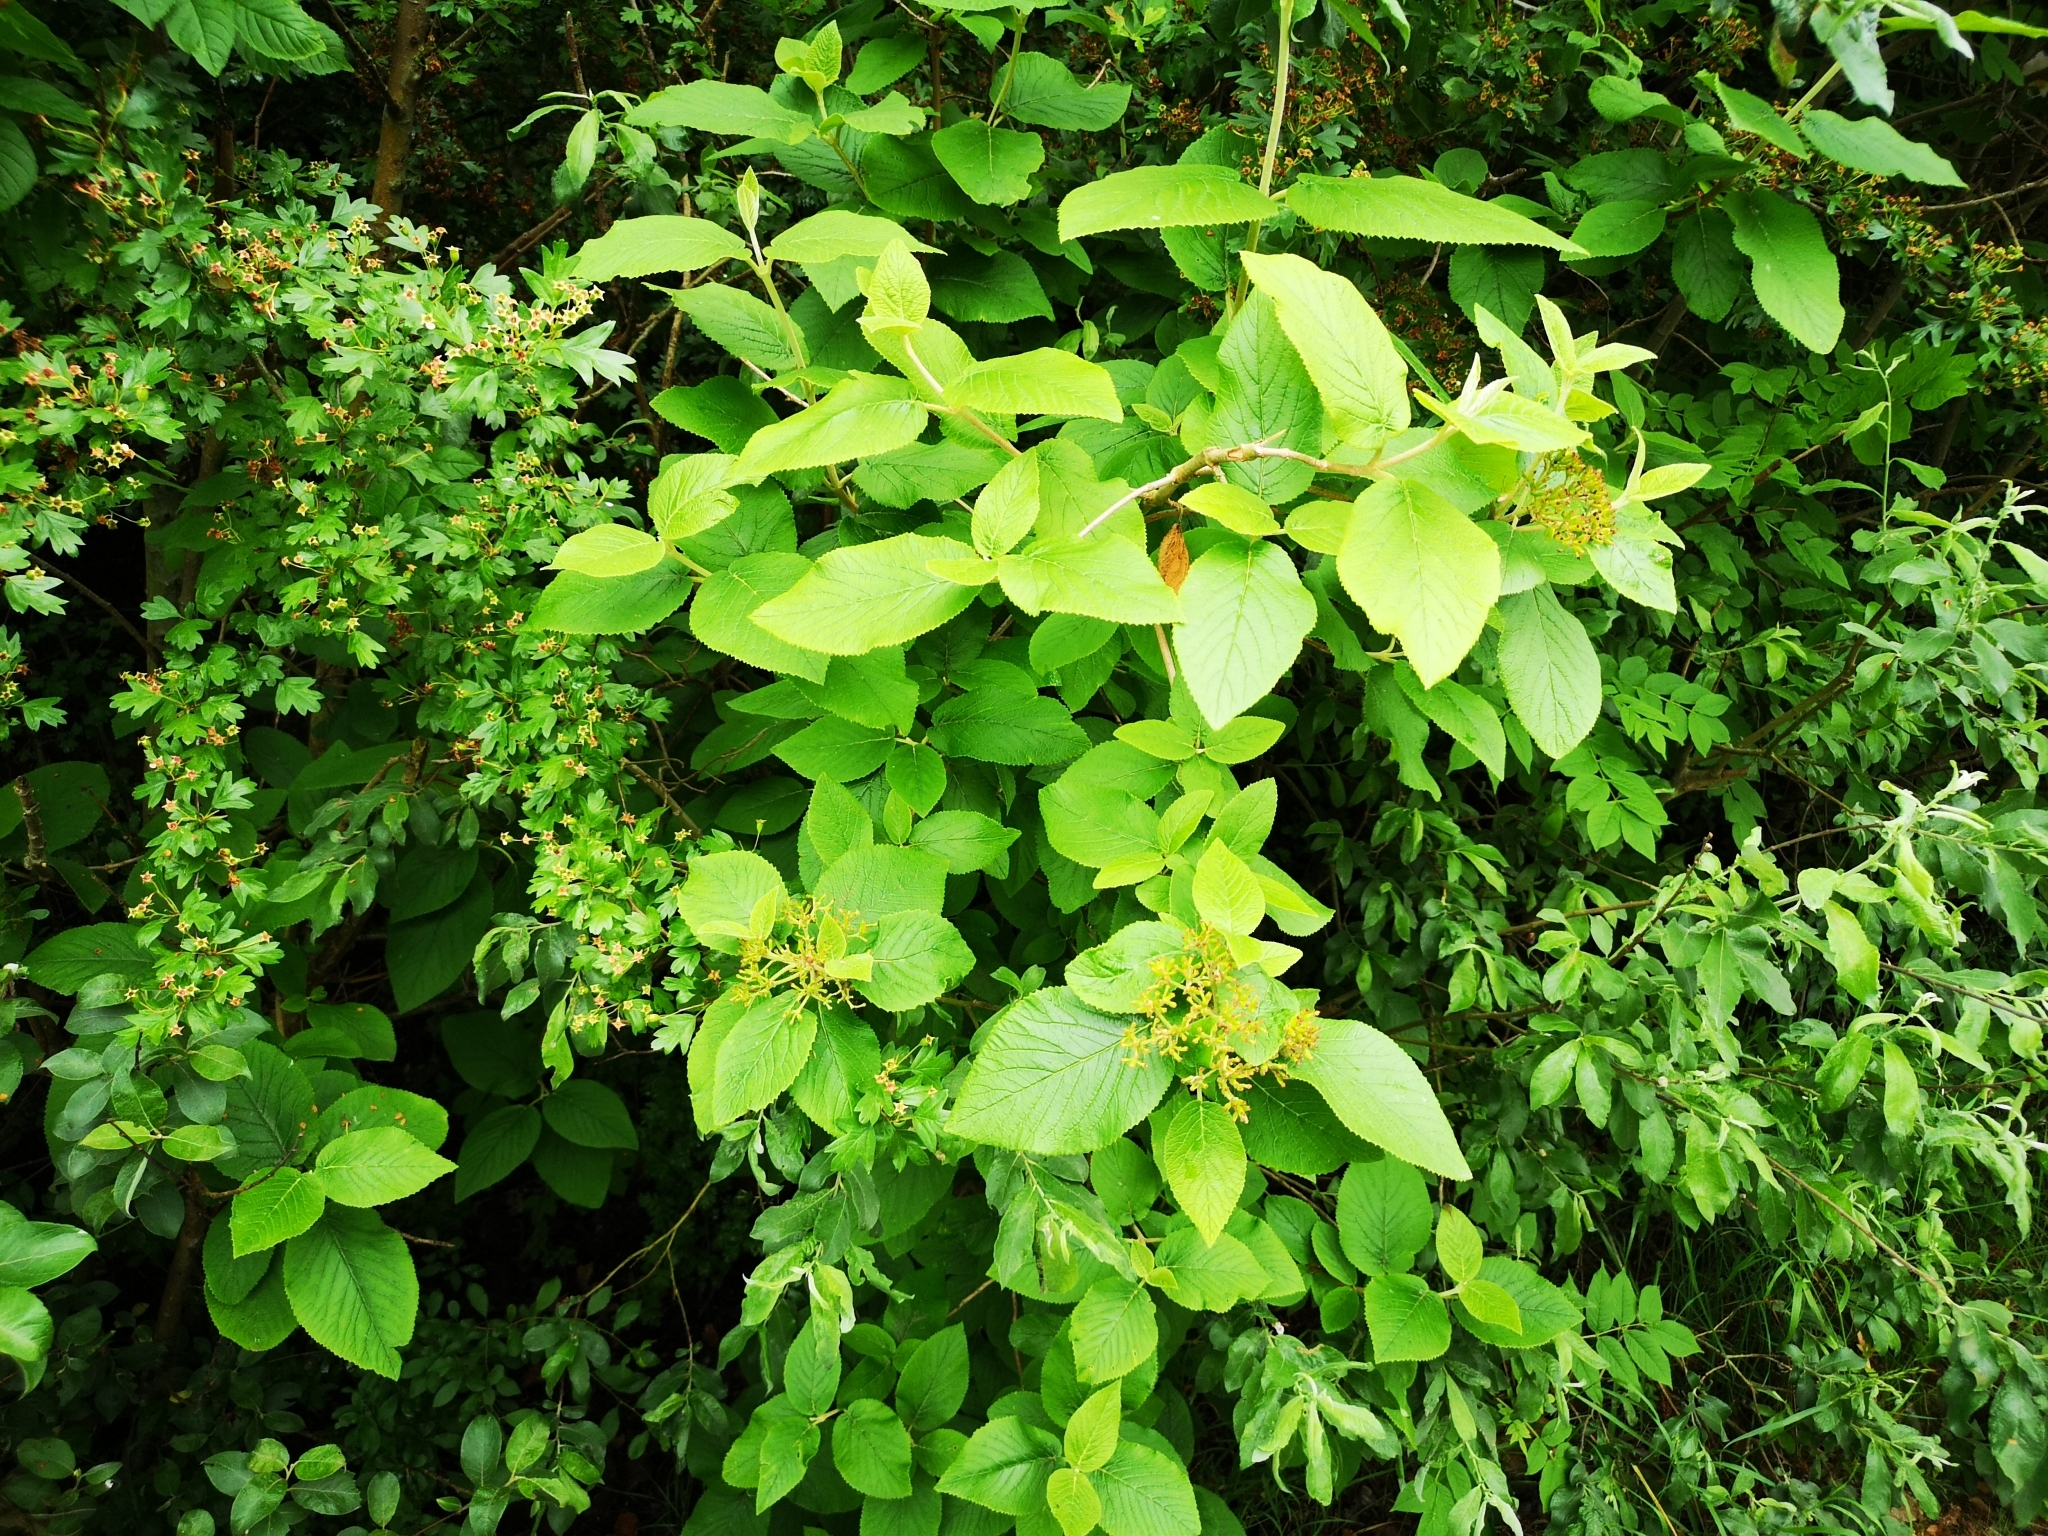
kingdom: Plantae
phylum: Tracheophyta
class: Magnoliopsida
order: Dipsacales
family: Viburnaceae
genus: Viburnum
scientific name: Viburnum lantana
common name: Wayfaring tree
